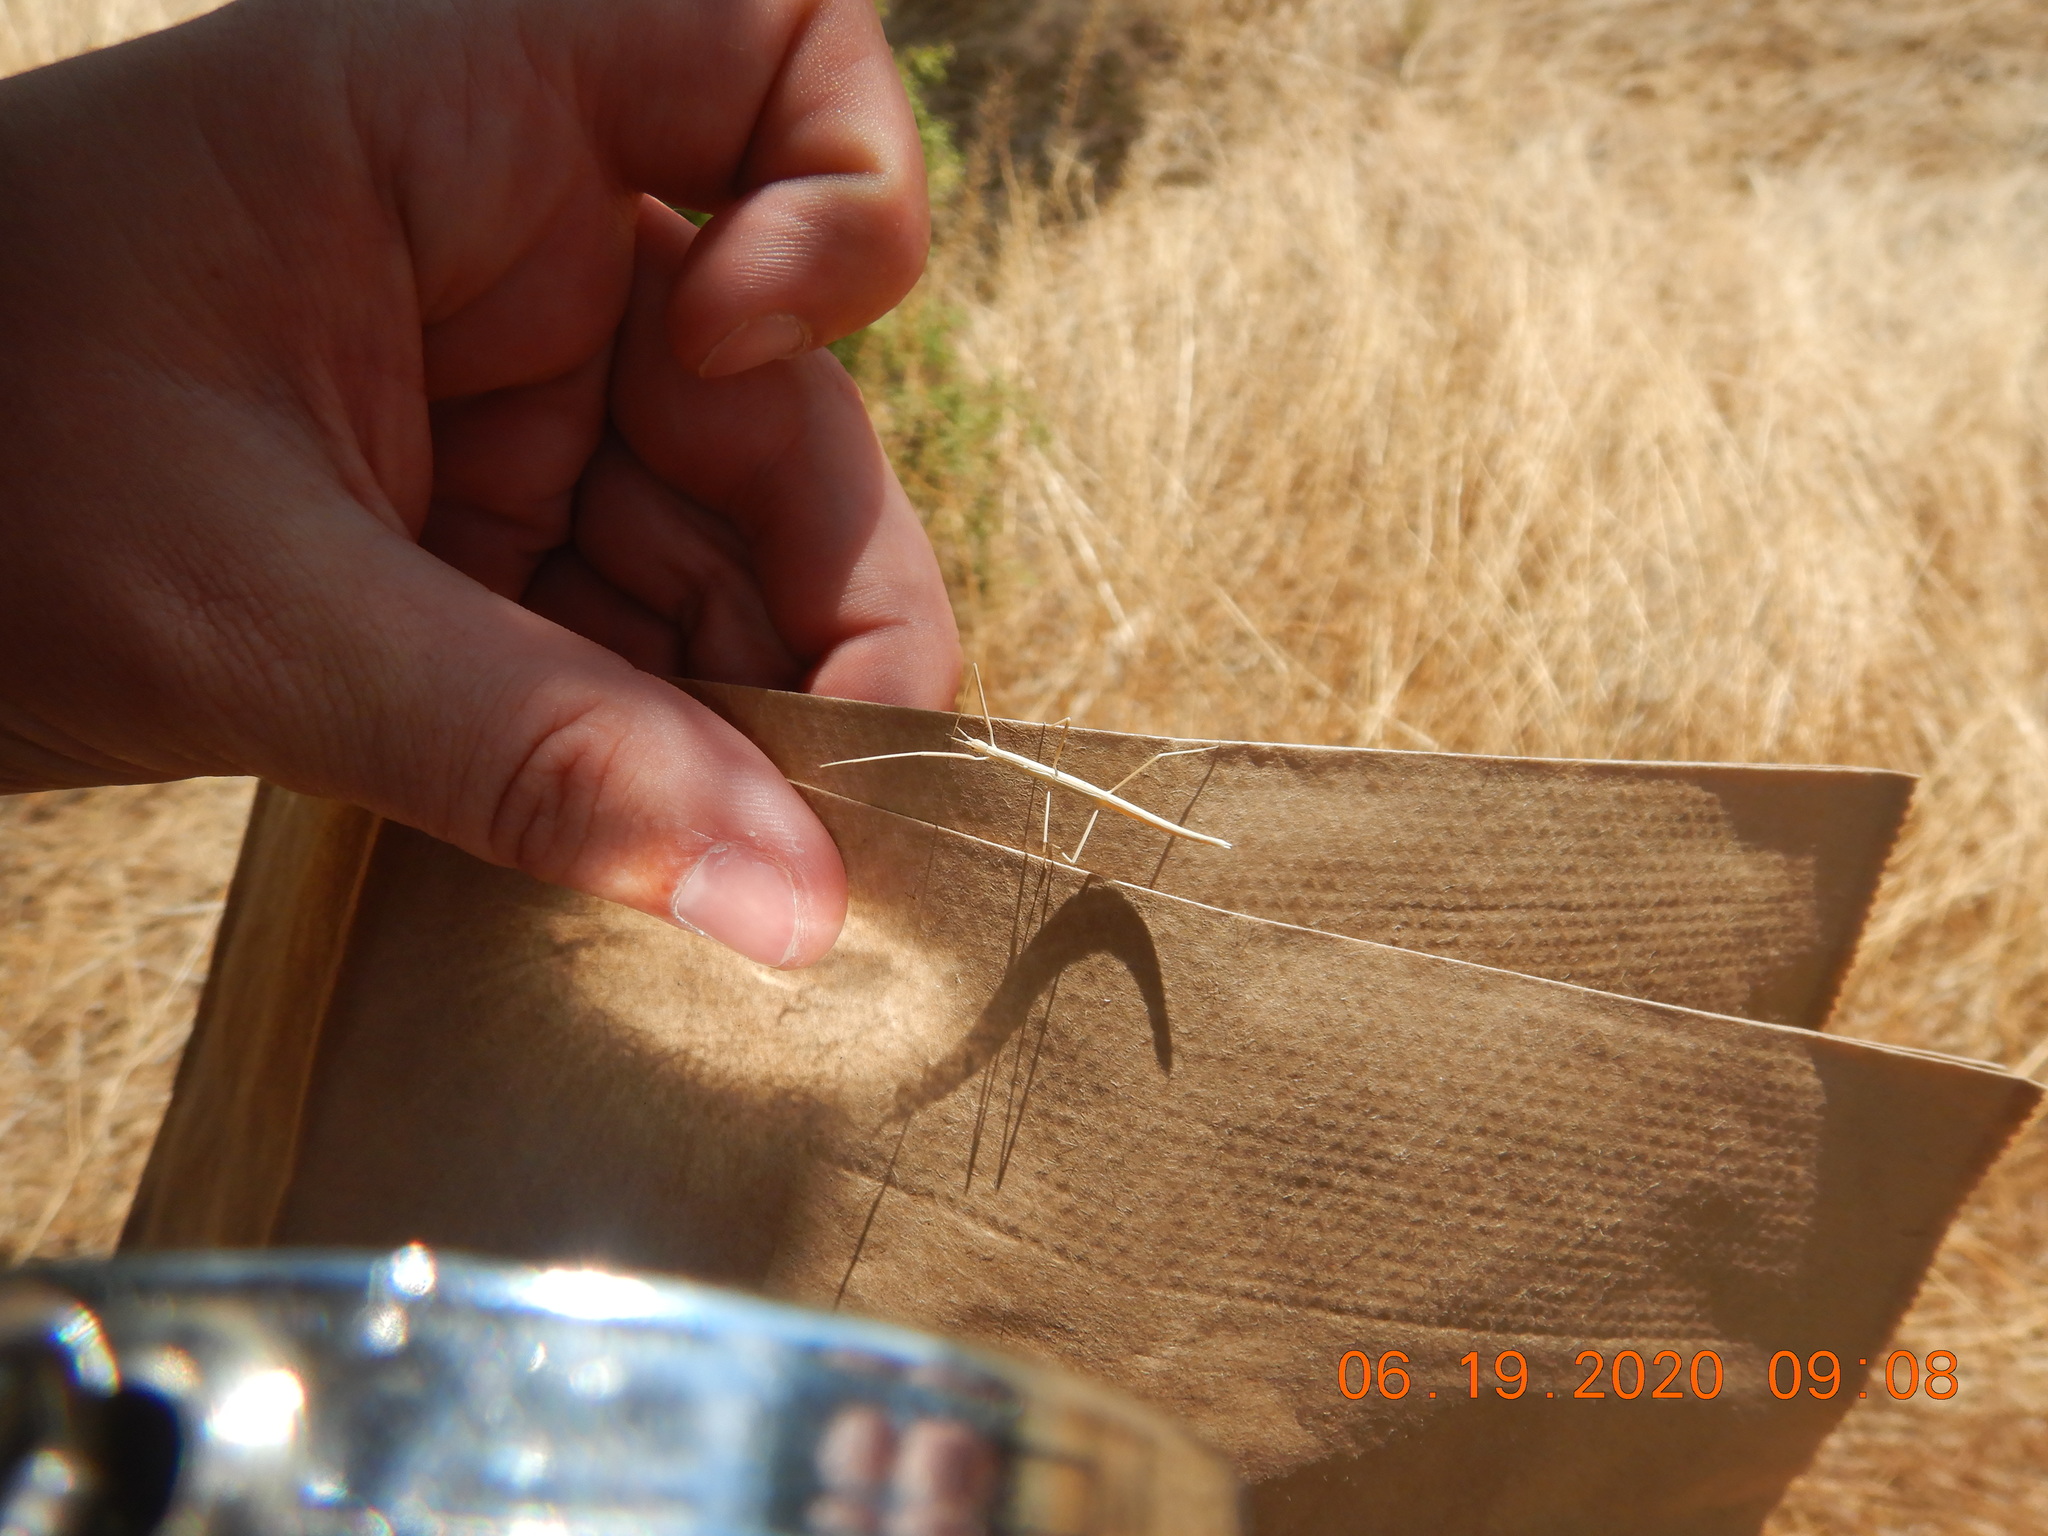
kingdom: Plantae
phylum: Tracheophyta
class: Liliopsida
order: Poales
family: Poaceae
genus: Bromus
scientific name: Bromus tectorum
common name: Cheatgrass
